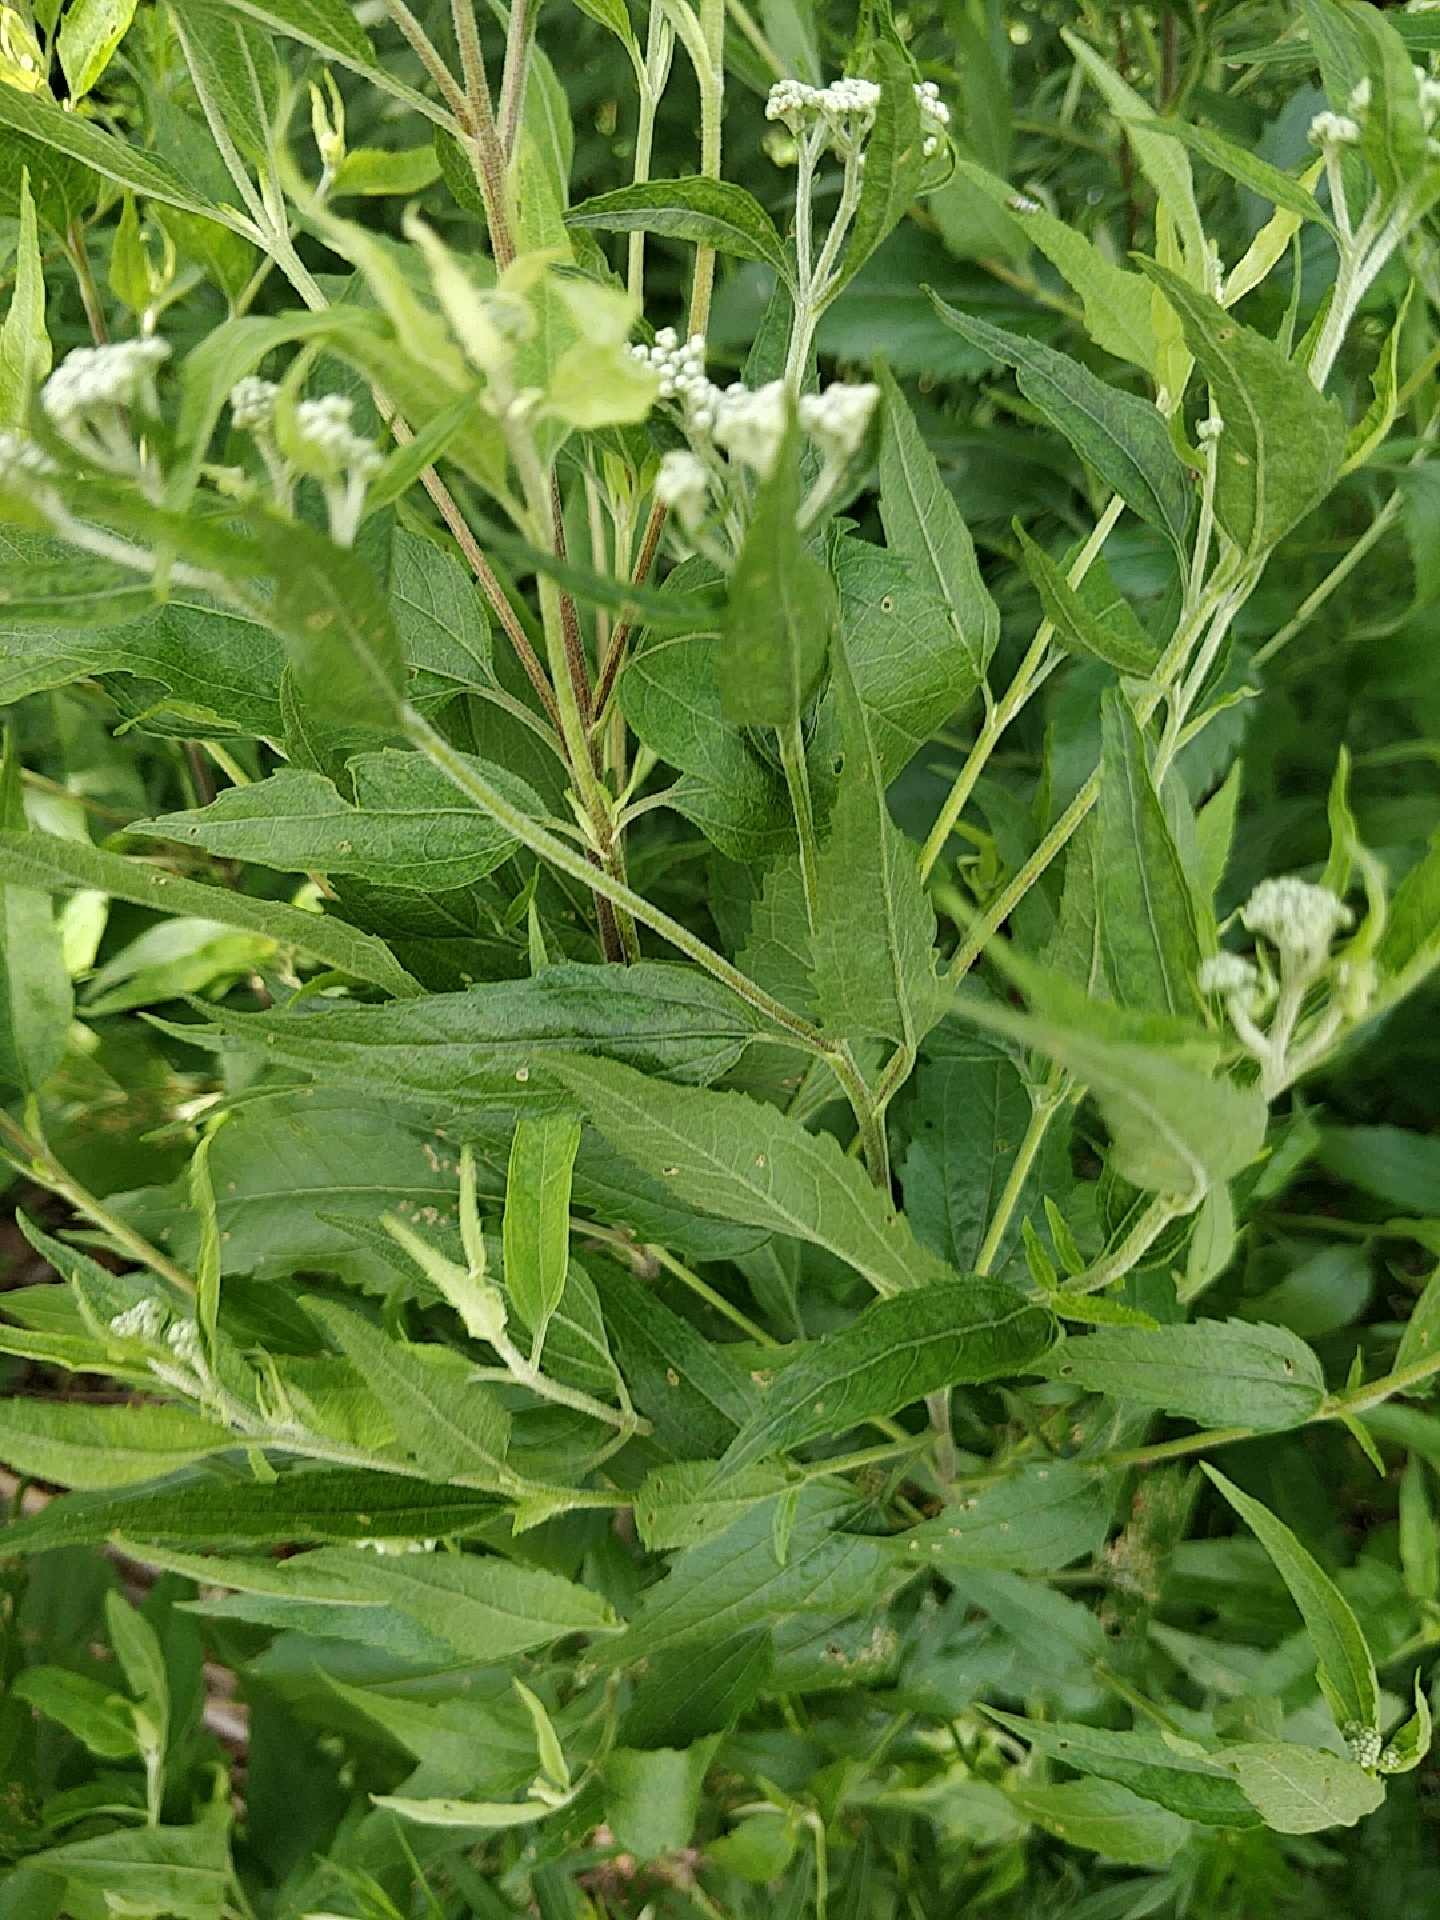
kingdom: Plantae
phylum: Tracheophyta
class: Magnoliopsida
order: Asterales
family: Asteraceae
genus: Eupatorium
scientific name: Eupatorium serotinum
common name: Late boneset
